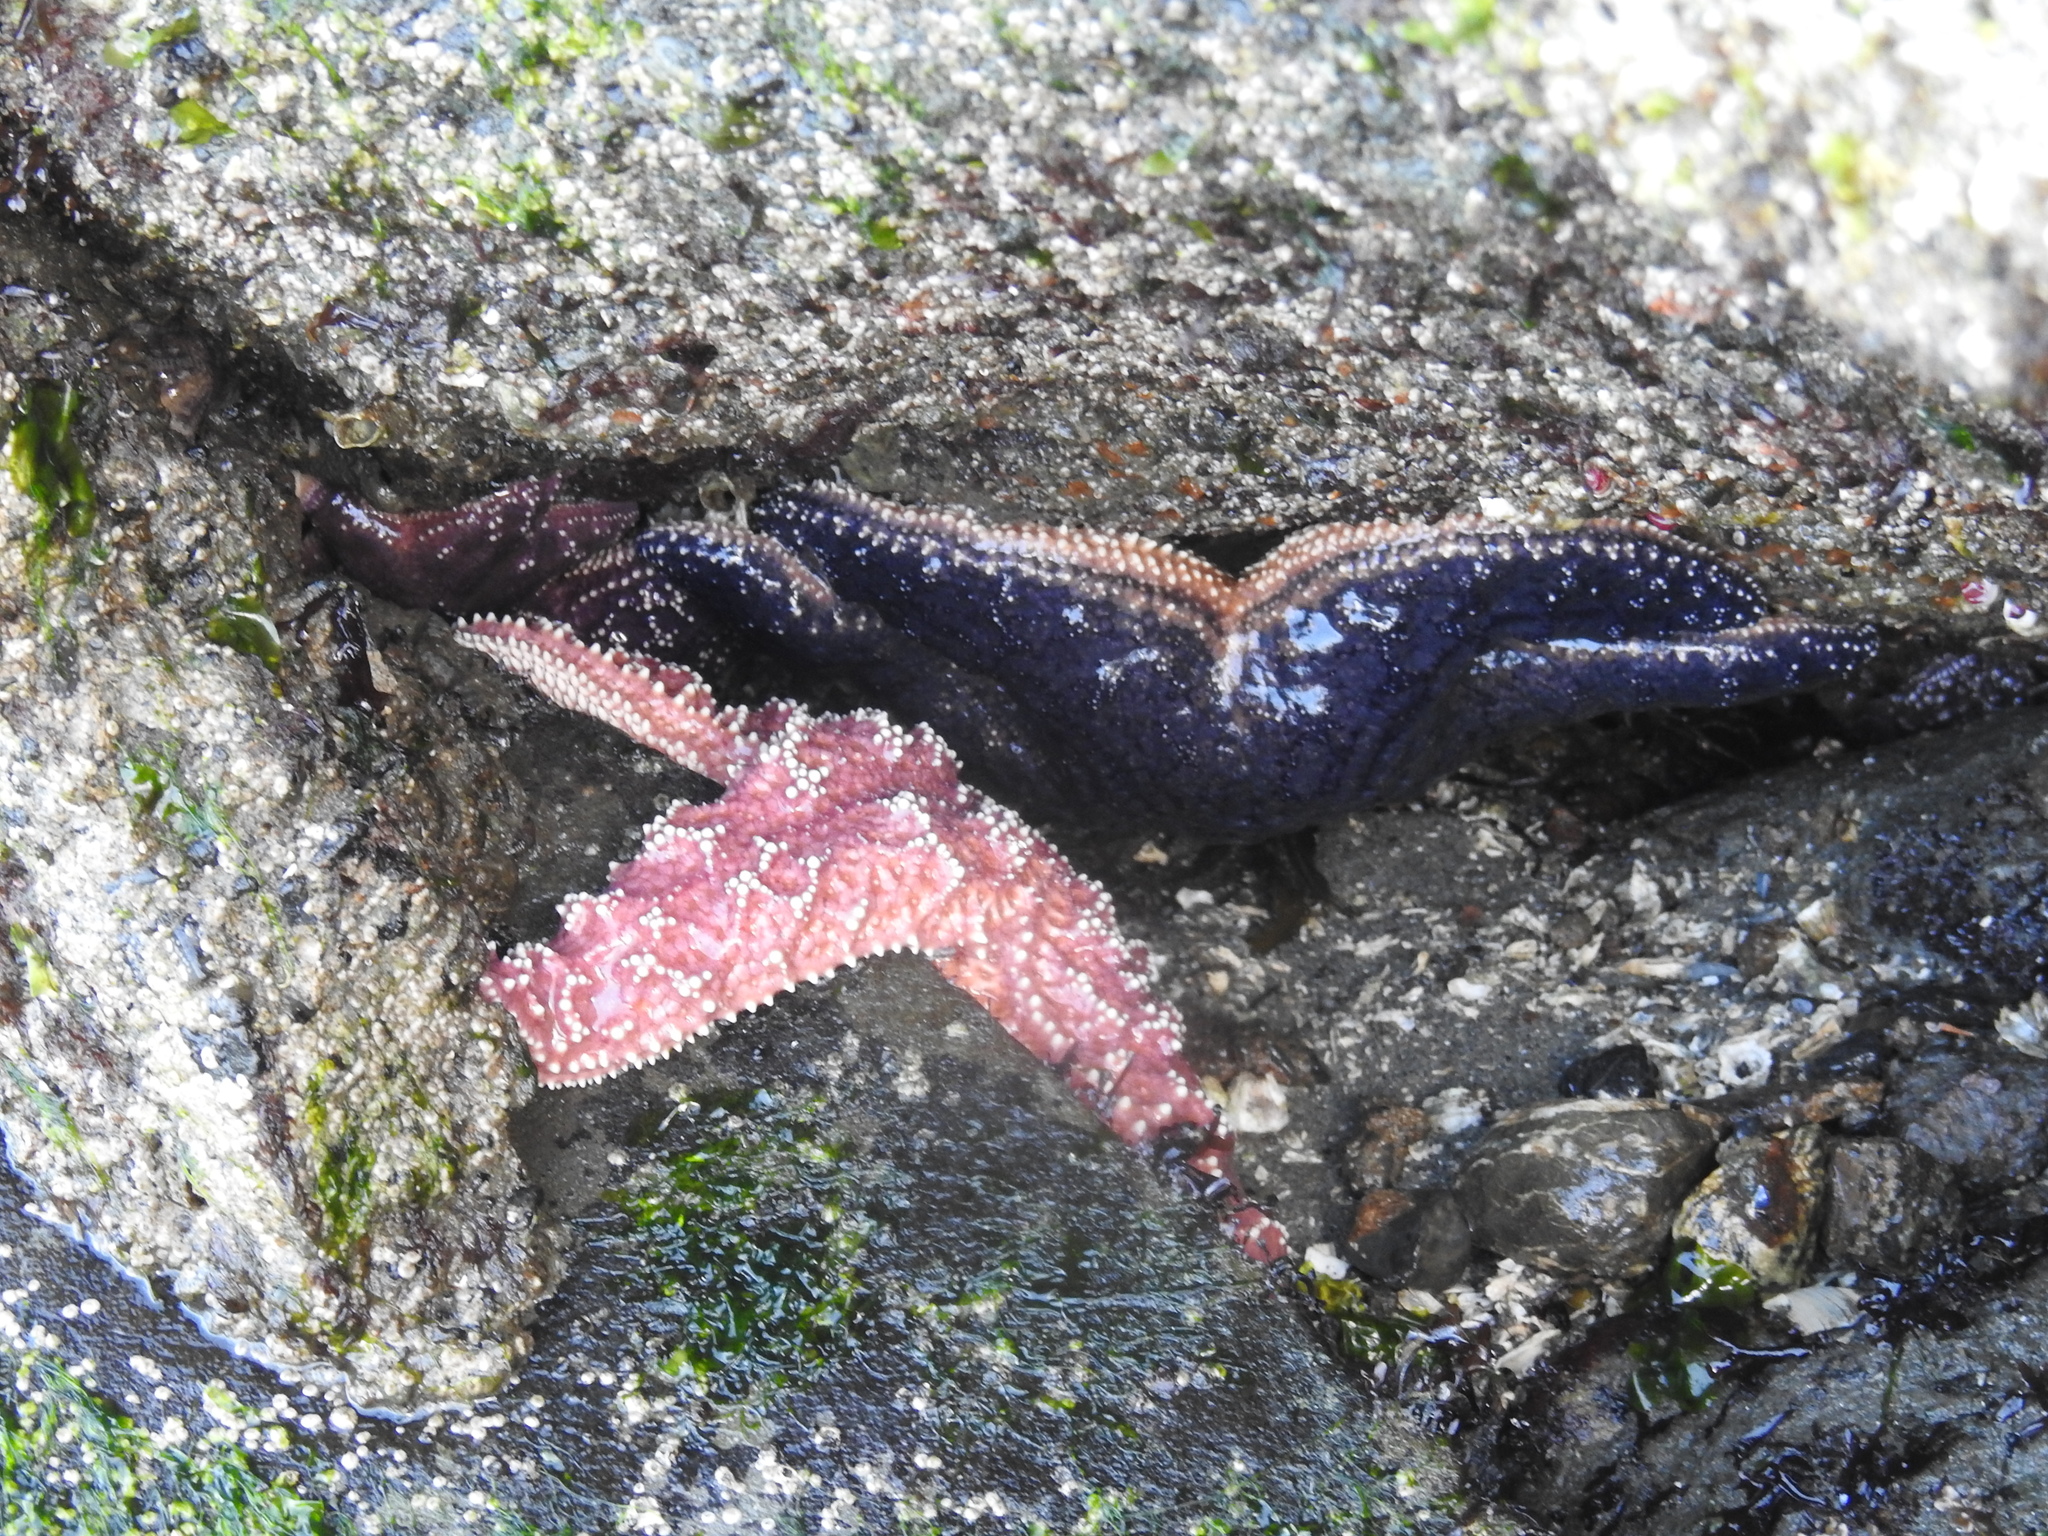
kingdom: Animalia
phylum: Echinodermata
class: Asteroidea
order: Forcipulatida
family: Asteriidae
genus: Pisaster
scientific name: Pisaster ochraceus
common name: Ochre stars
